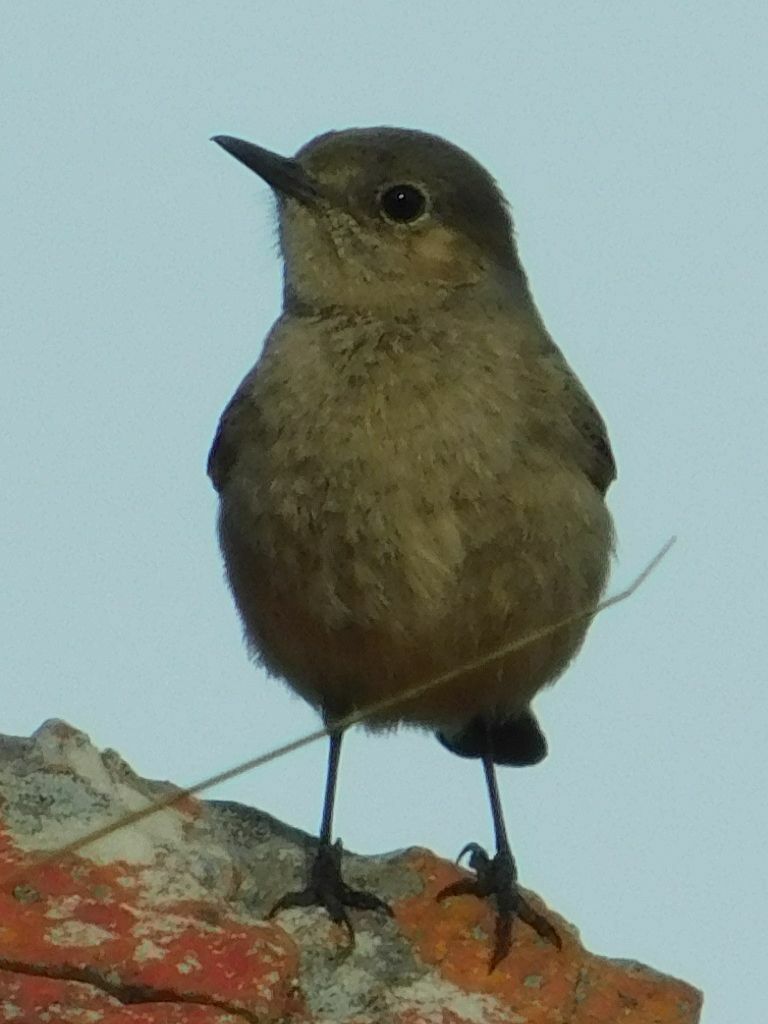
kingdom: Animalia
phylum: Chordata
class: Aves
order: Passeriformes
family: Muscicapidae
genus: Oenanthe
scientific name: Oenanthe familiaris
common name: Familiar chat
